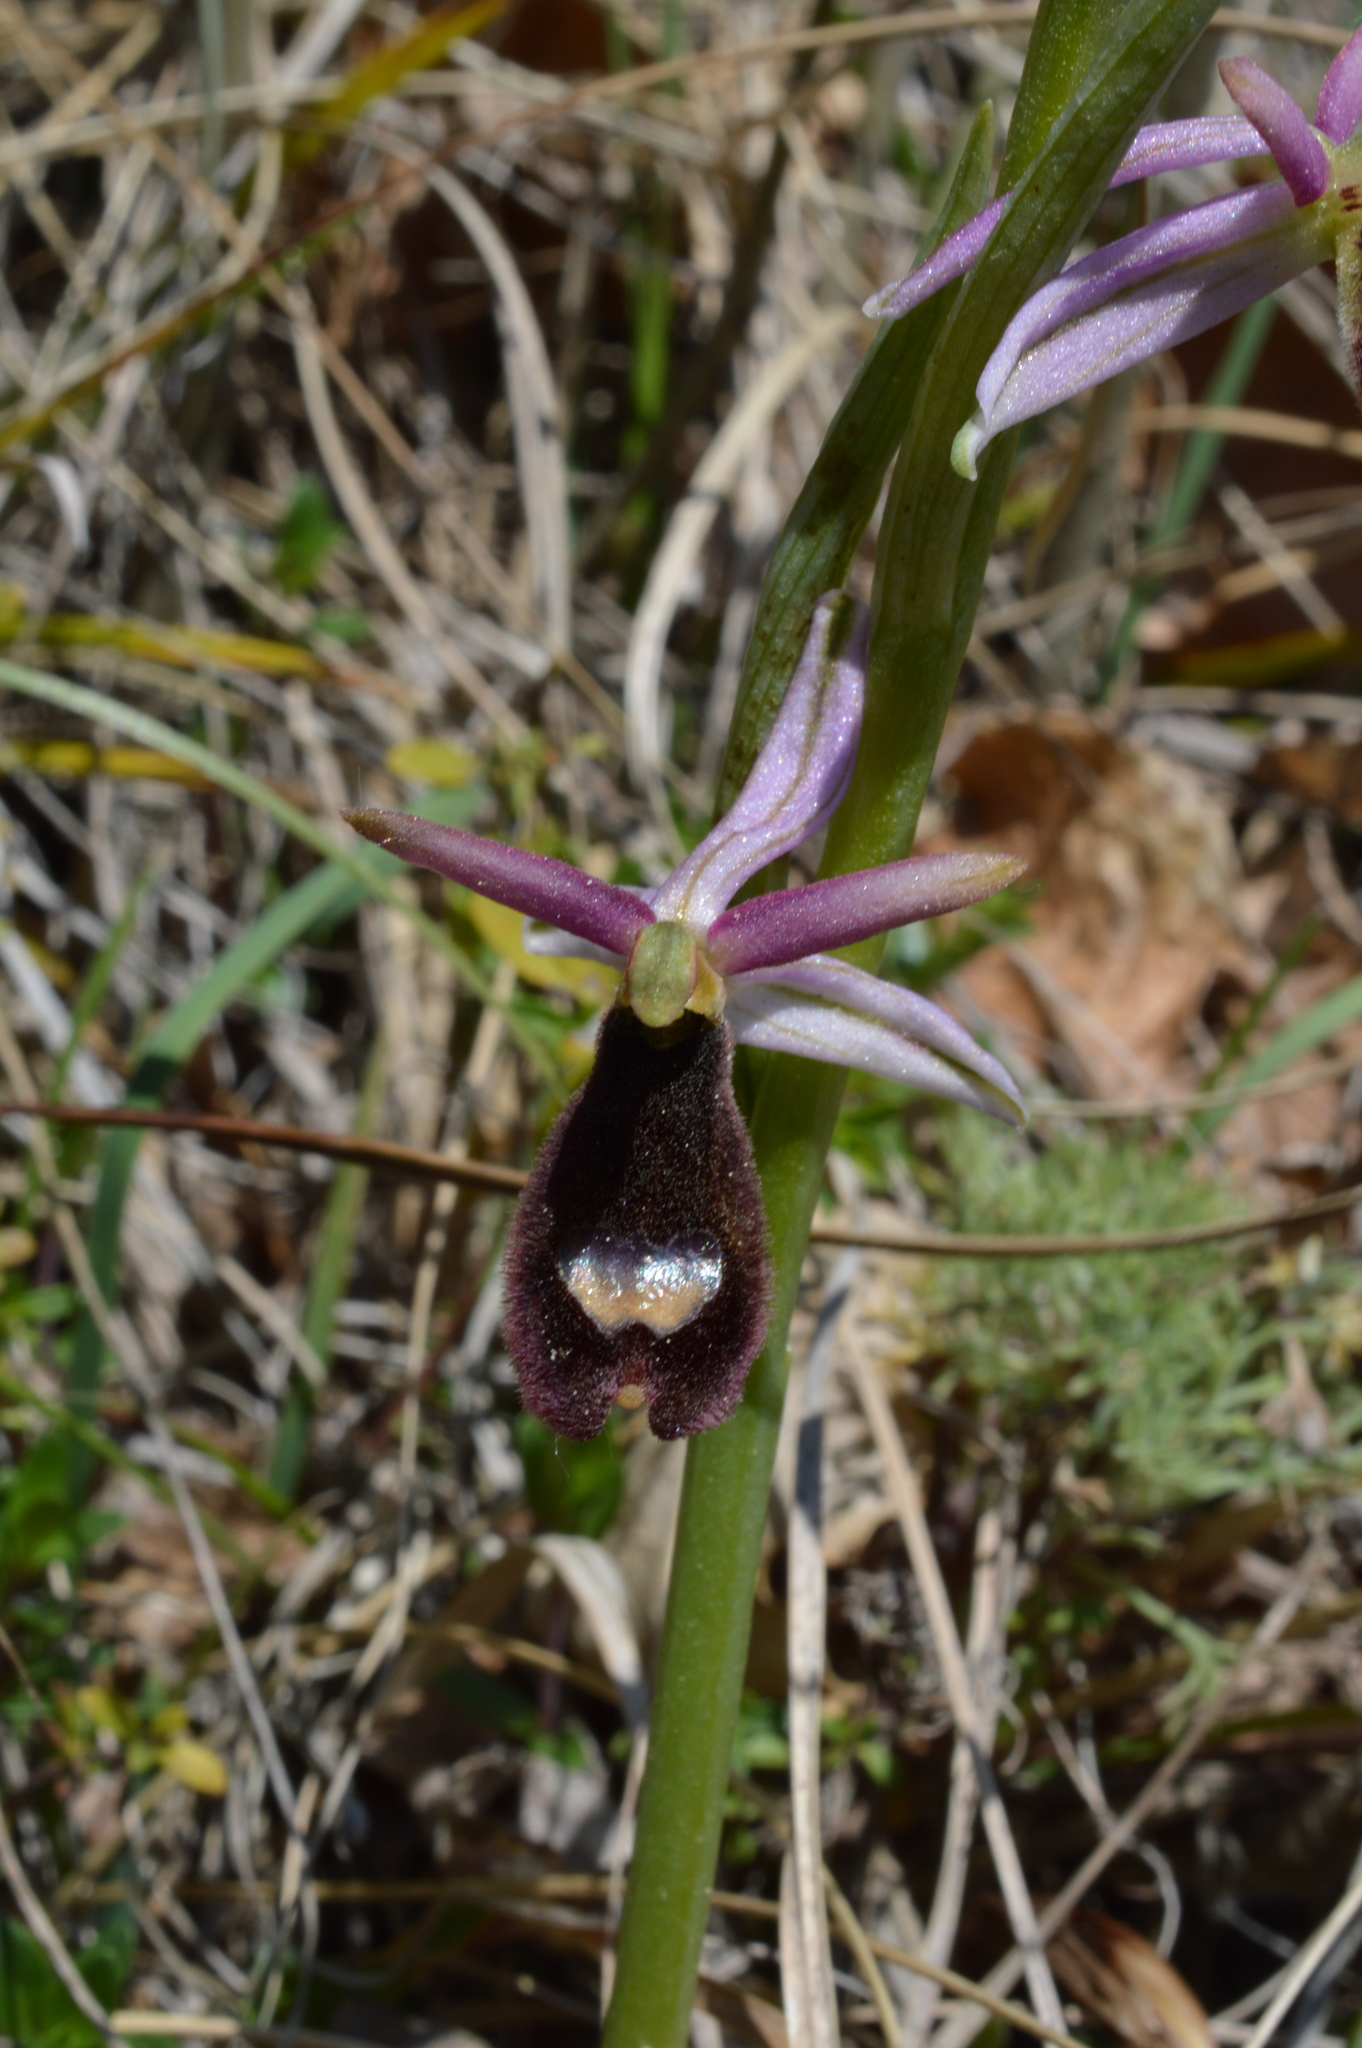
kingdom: Plantae
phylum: Tracheophyta
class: Liliopsida
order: Asparagales
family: Orchidaceae
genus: Ophrys
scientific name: Ophrys bertolonii
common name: Bertoloni's bee orchid
